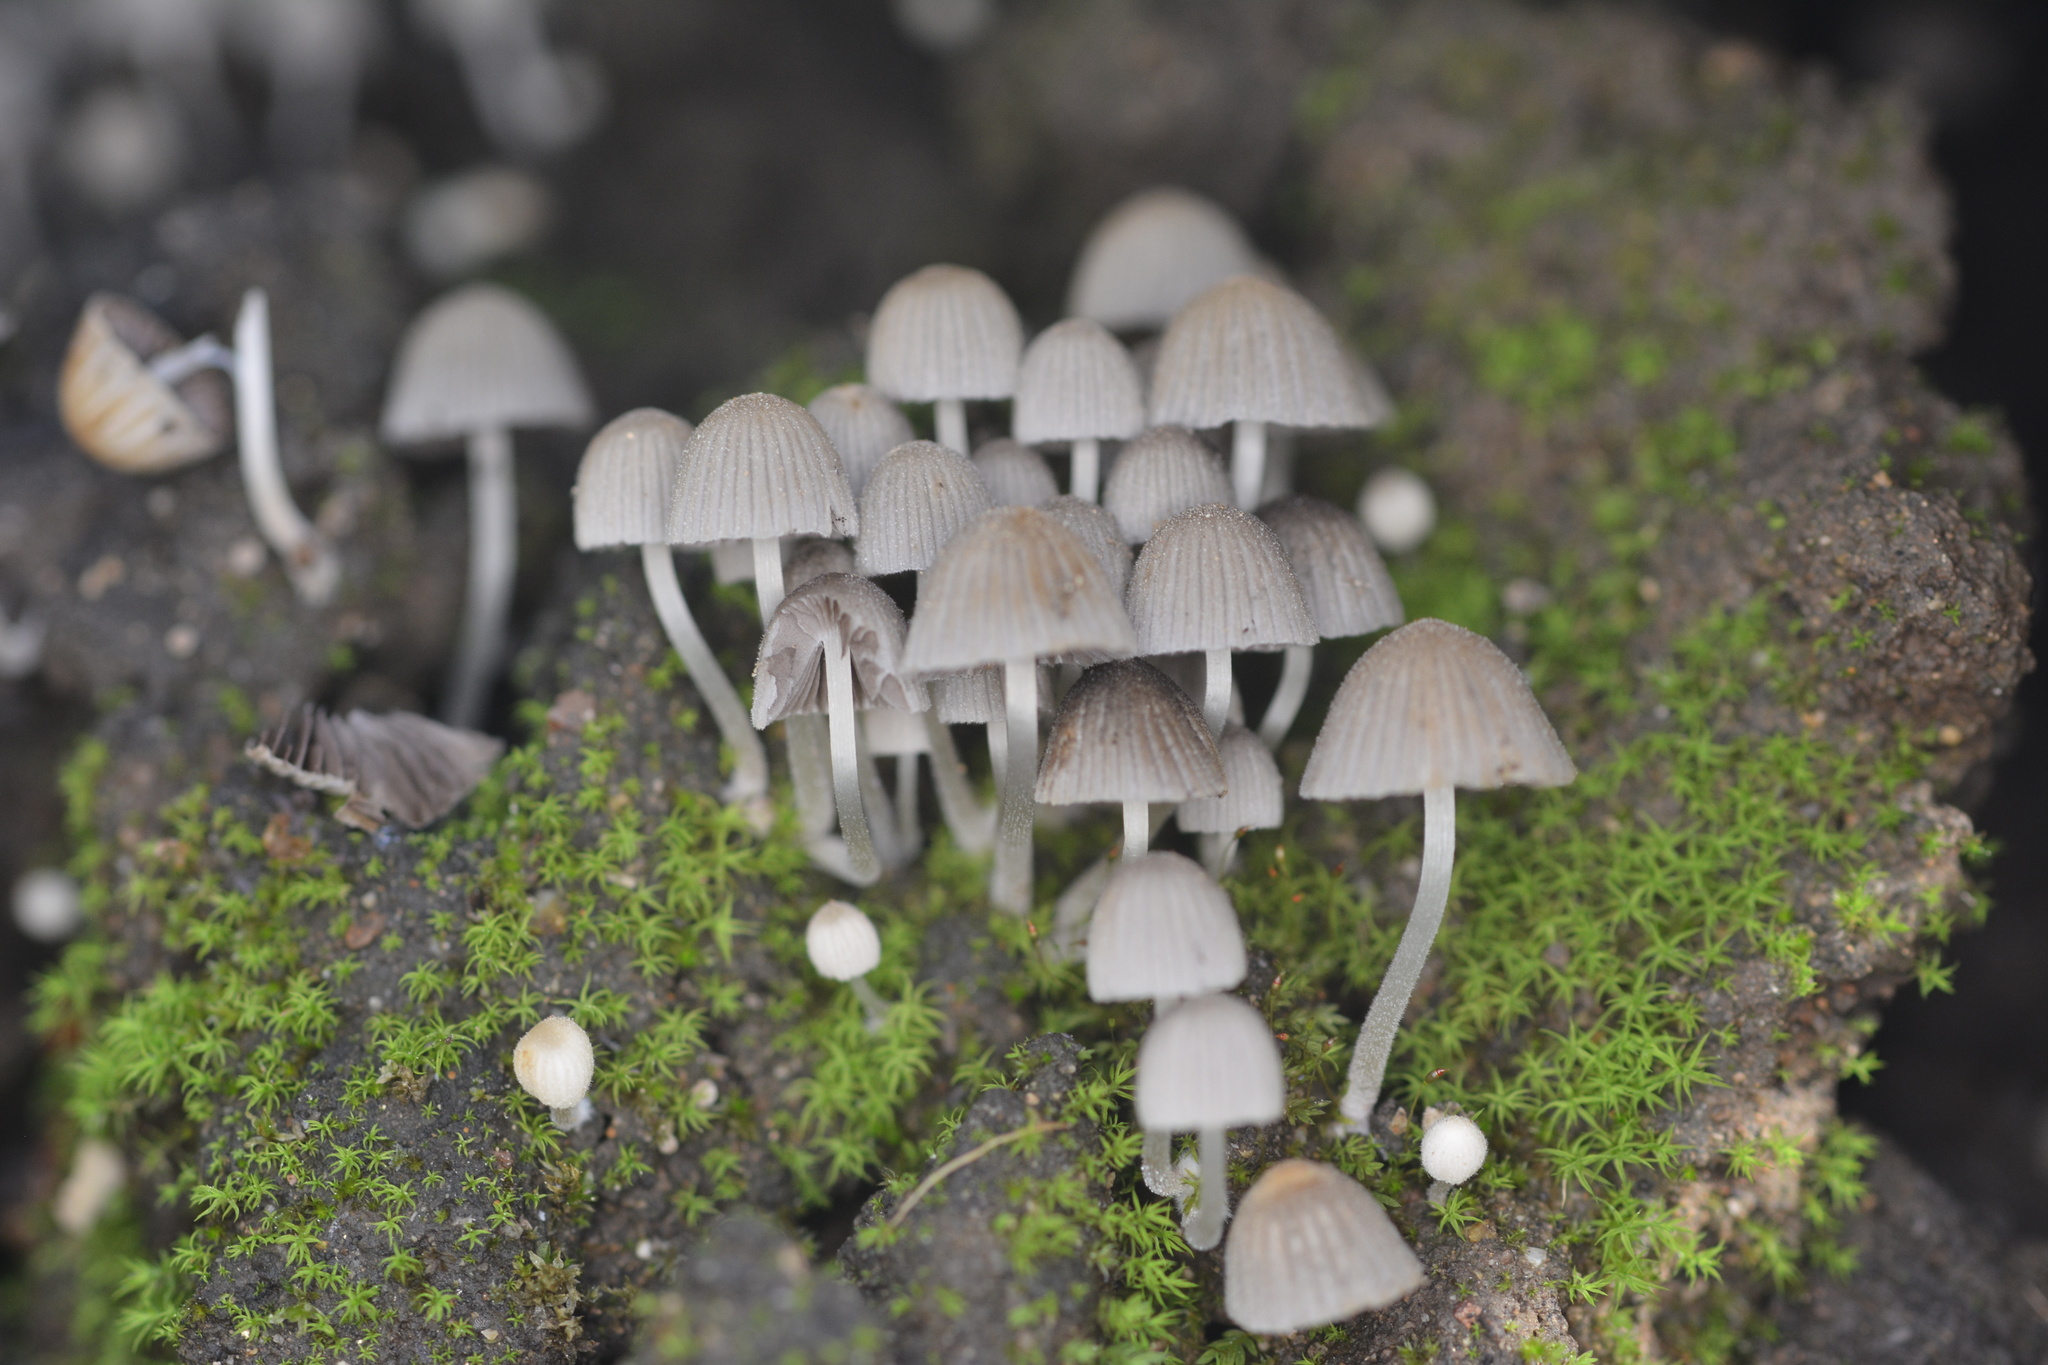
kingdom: Fungi
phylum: Basidiomycota
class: Agaricomycetes
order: Agaricales
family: Psathyrellaceae
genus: Coprinellus
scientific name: Coprinellus disseminatus
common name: Fairies' bonnets
